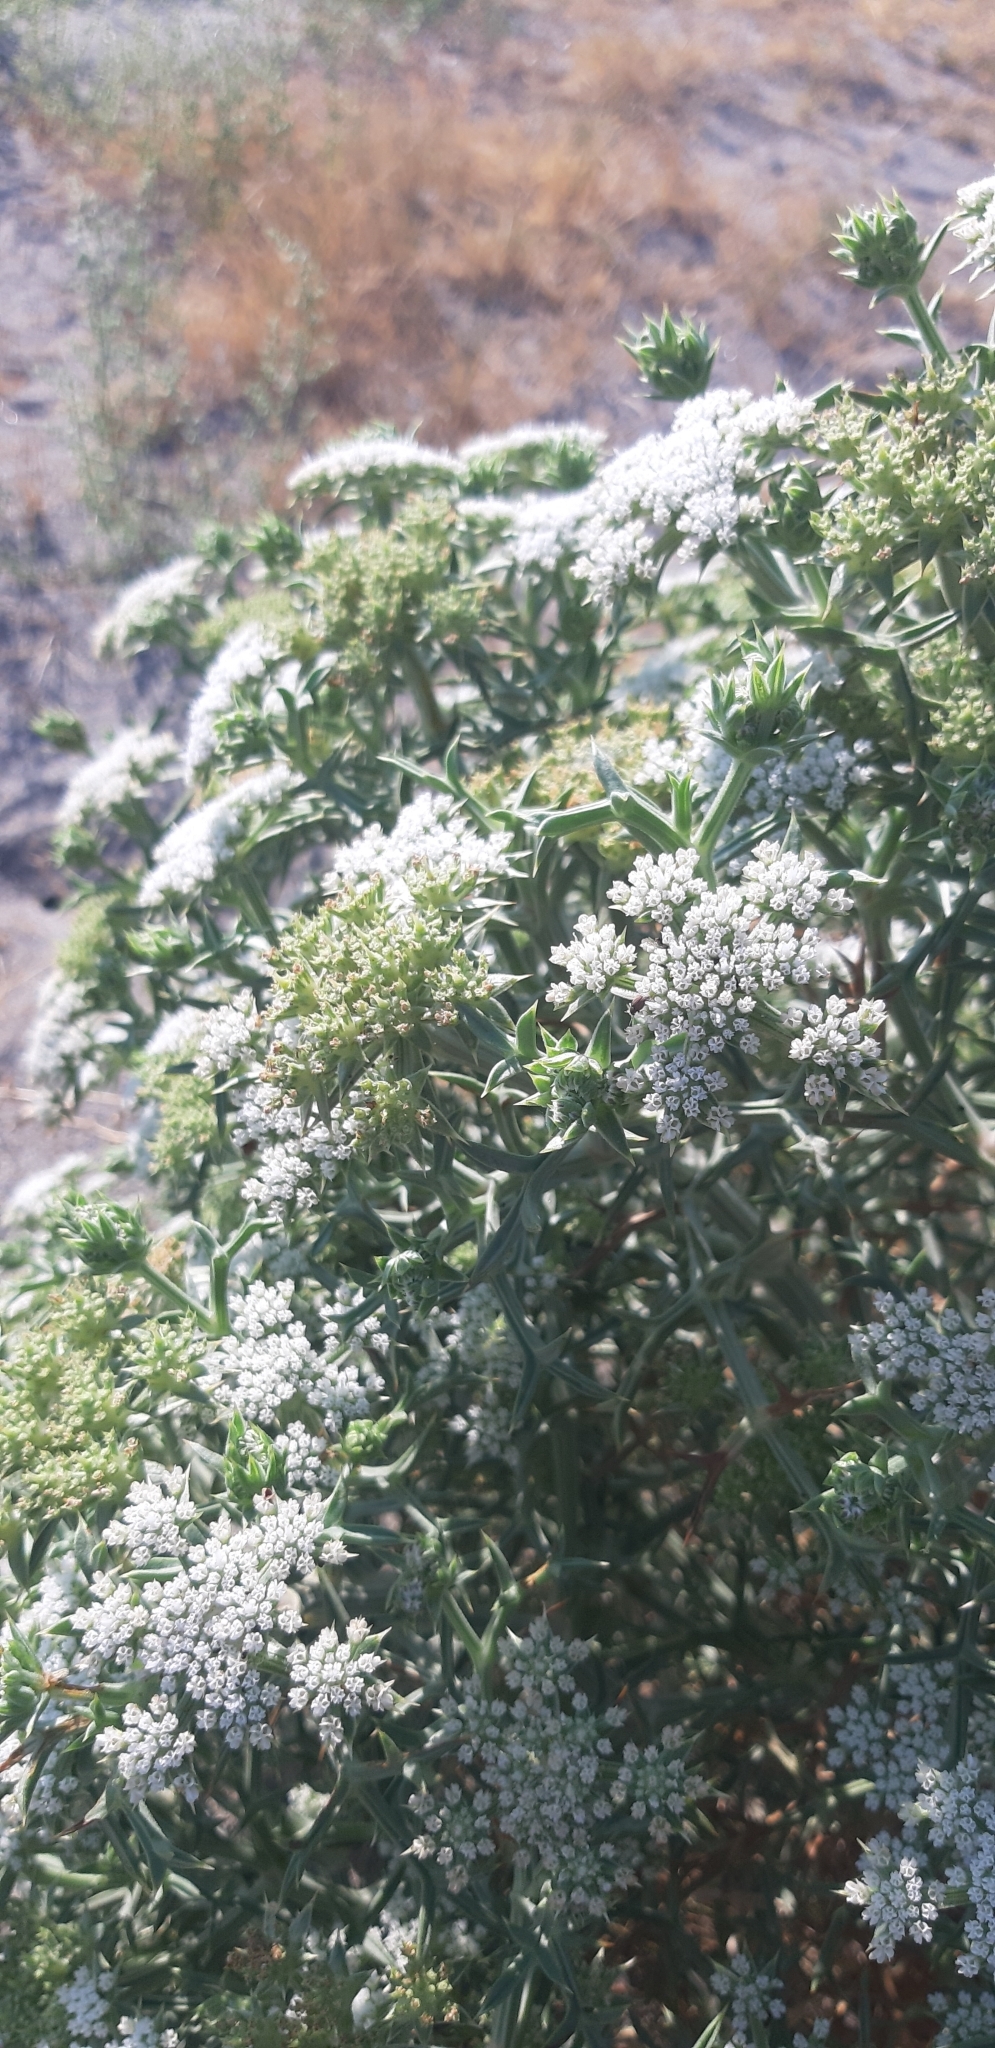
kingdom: Plantae
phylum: Tracheophyta
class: Magnoliopsida
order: Apiales
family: Apiaceae
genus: Echinophora
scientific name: Echinophora spinosa
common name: Prickly samphire
